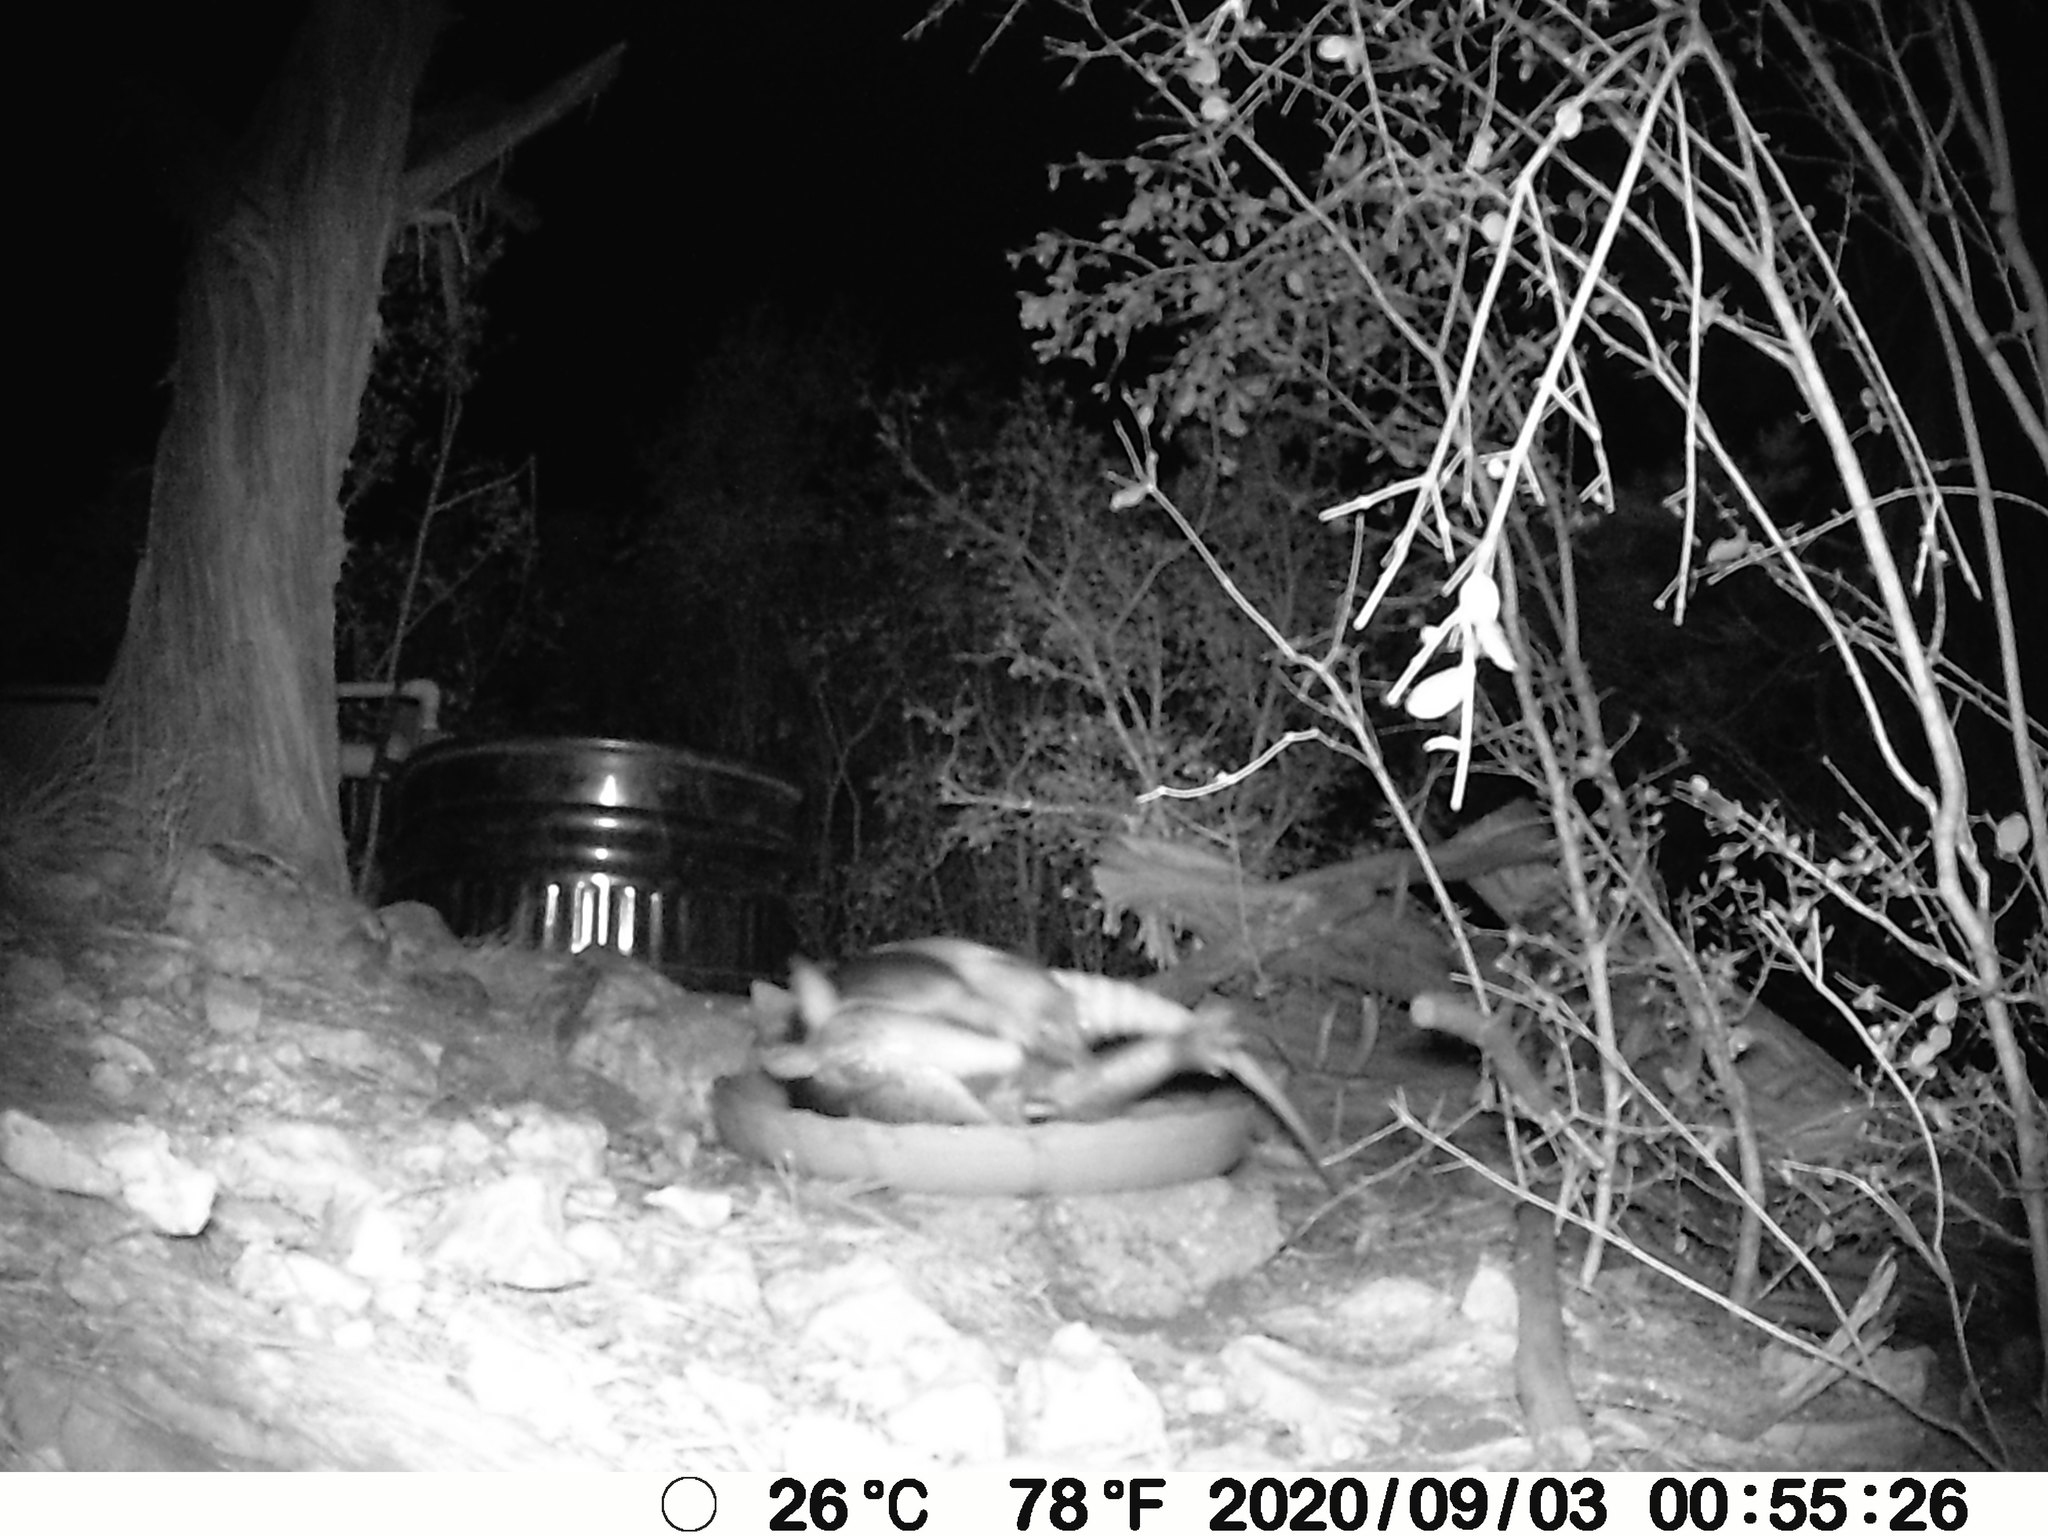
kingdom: Animalia
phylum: Chordata
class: Mammalia
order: Cingulata
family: Dasypodidae
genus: Dasypus
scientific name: Dasypus novemcinctus
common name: Nine-banded armadillo
